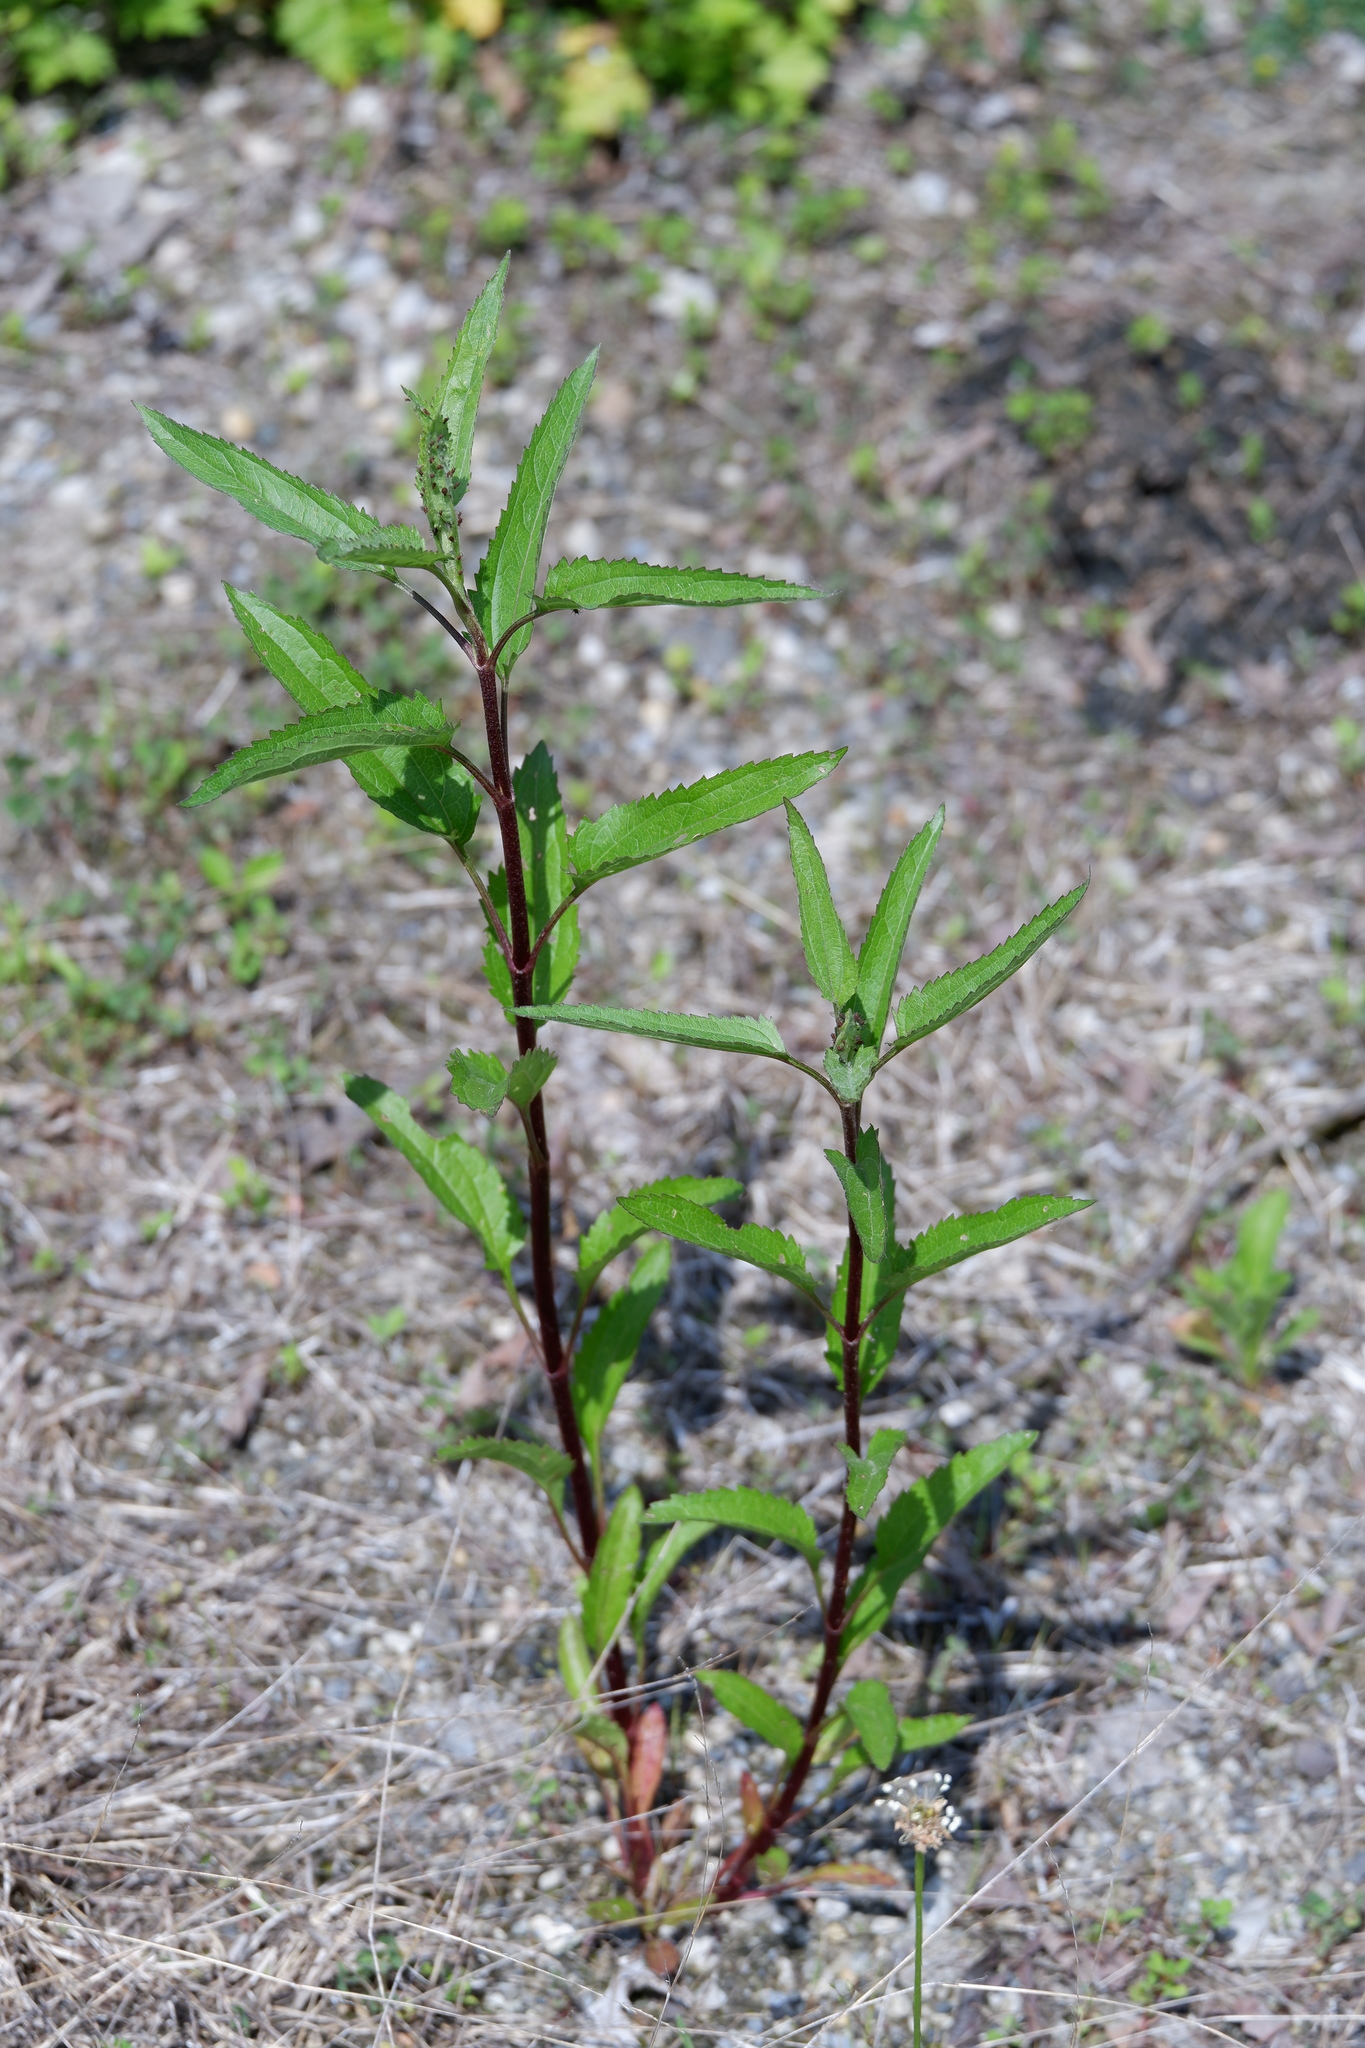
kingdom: Plantae
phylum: Tracheophyta
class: Magnoliopsida
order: Asterales
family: Asteraceae
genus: Eupatorium
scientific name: Eupatorium serotinum
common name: Late boneset
